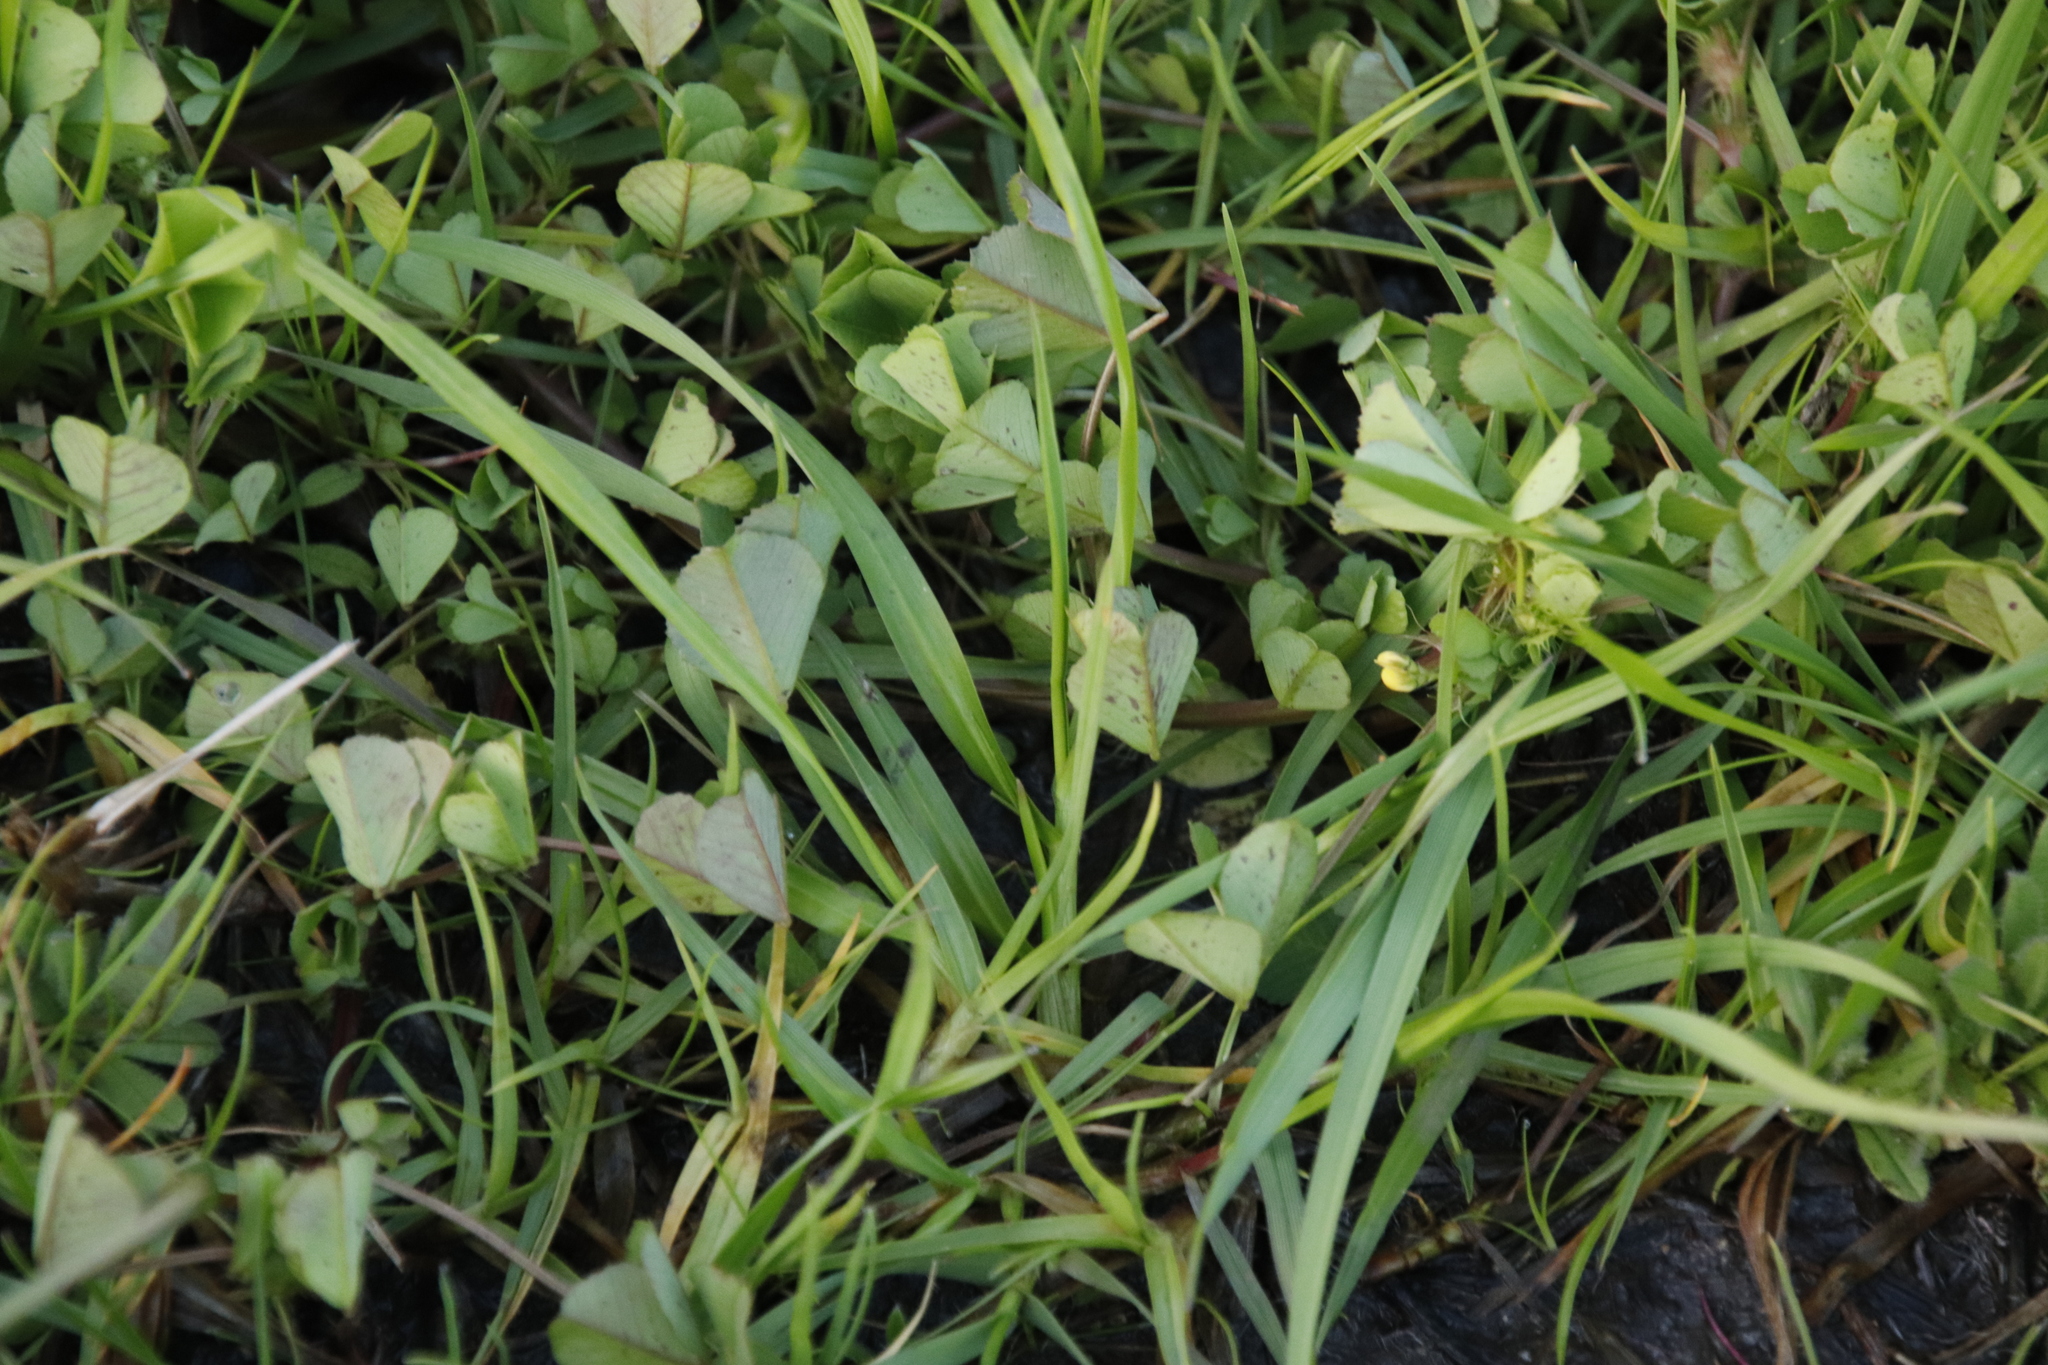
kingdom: Plantae
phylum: Tracheophyta
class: Magnoliopsida
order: Fabales
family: Fabaceae
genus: Medicago
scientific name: Medicago polymorpha
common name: Burclover
